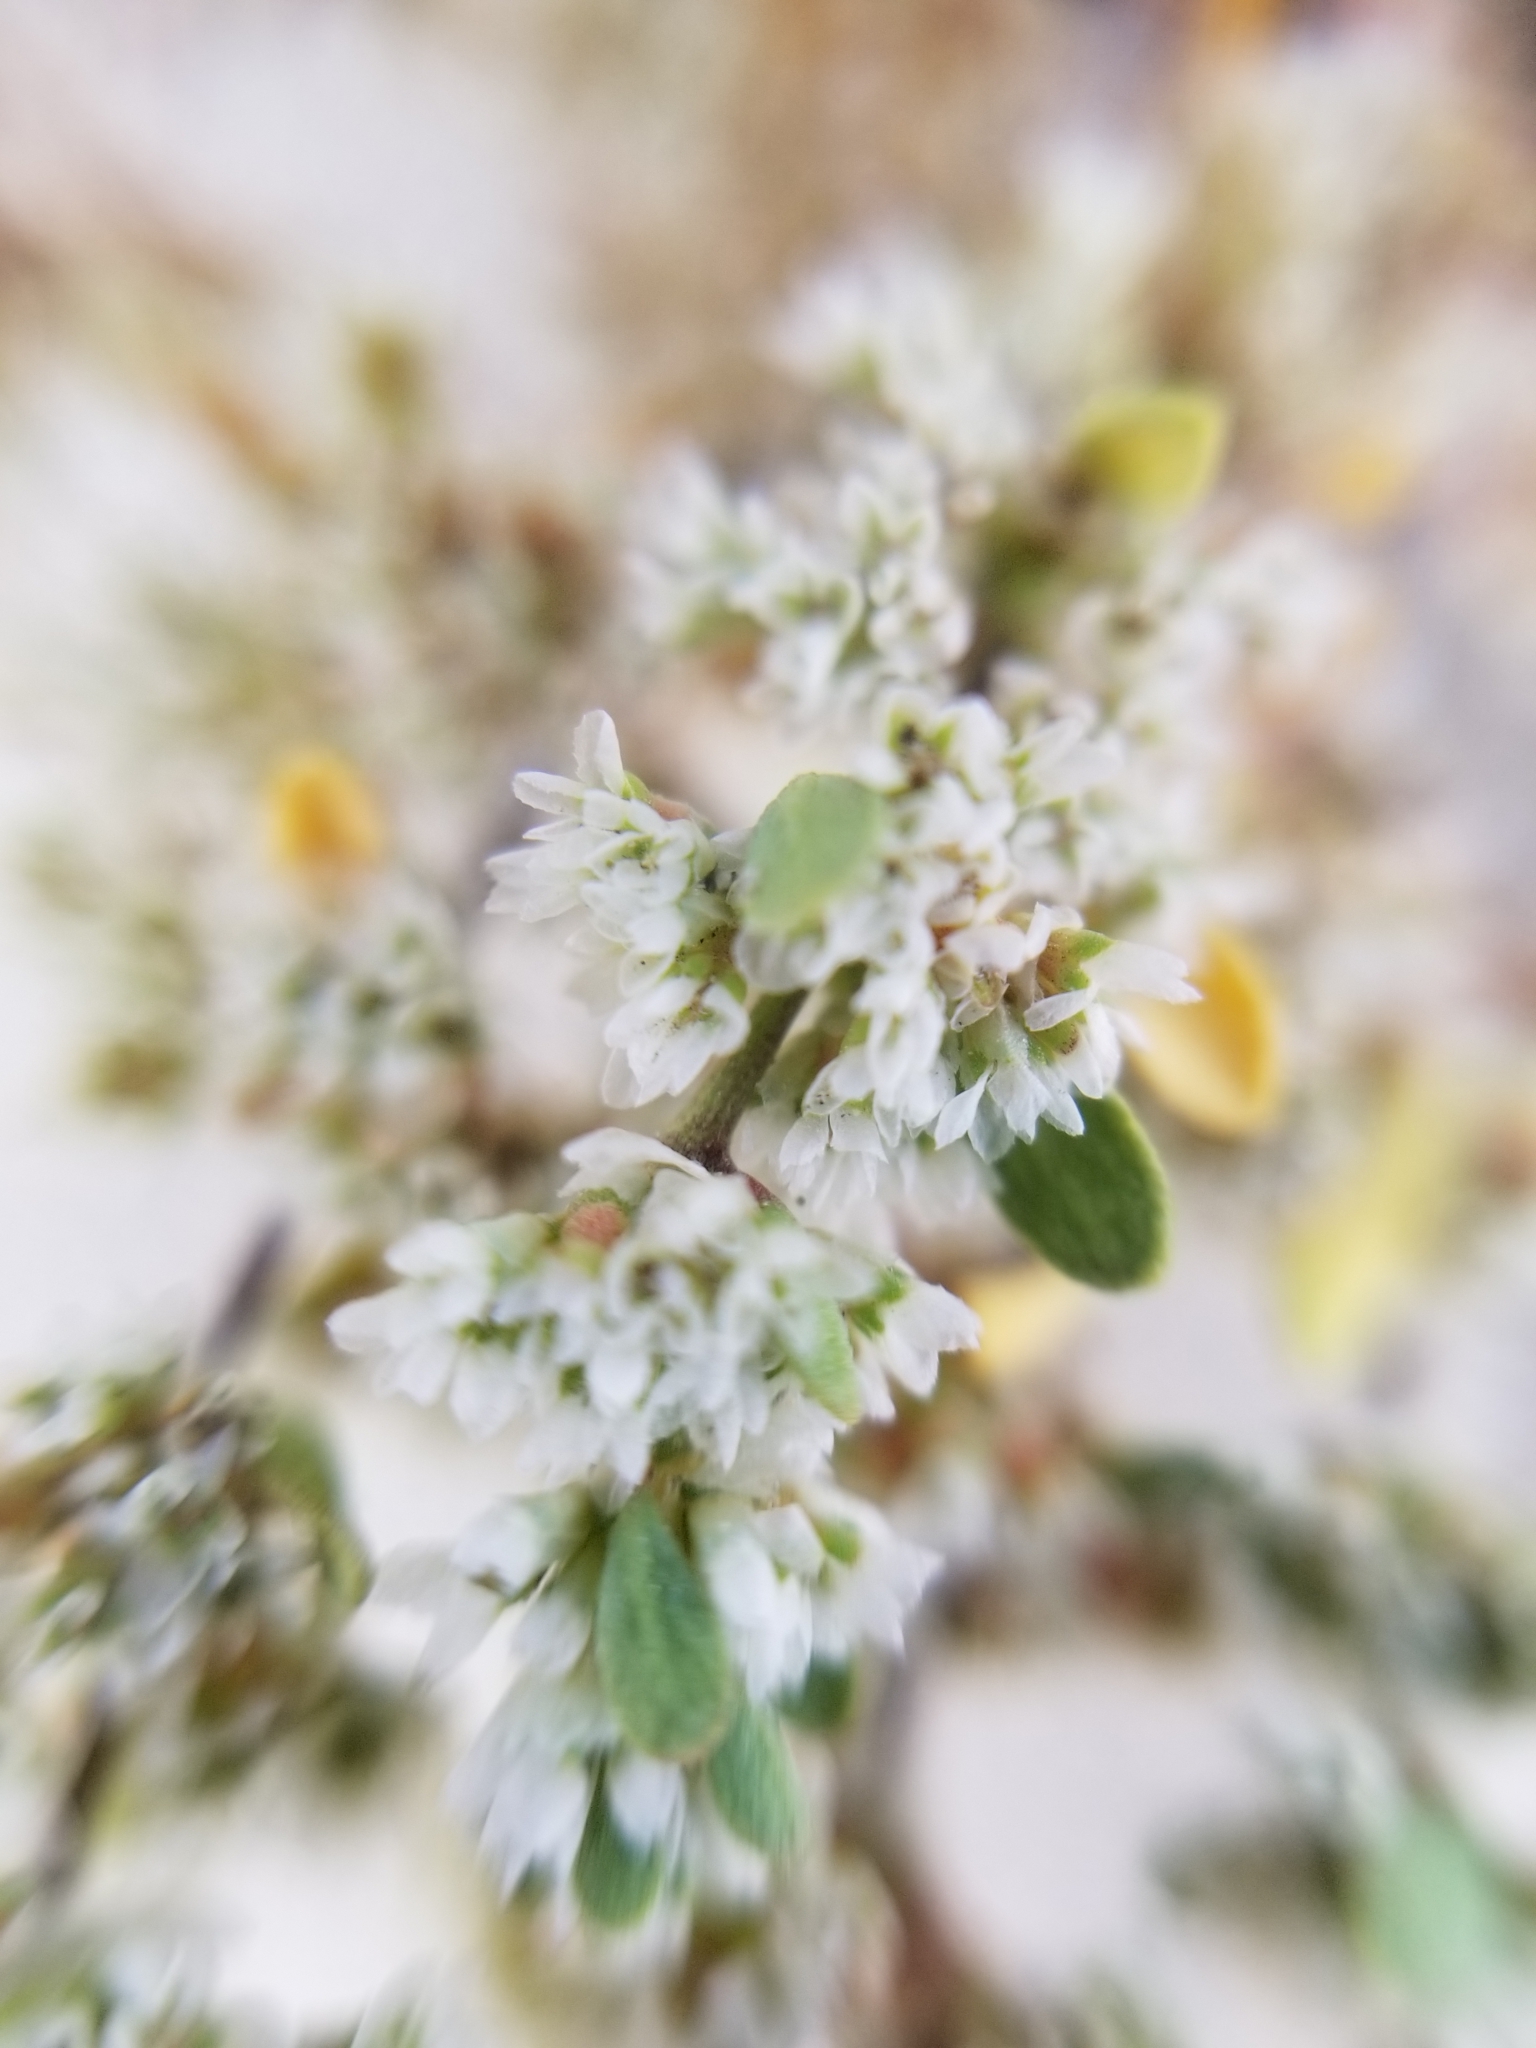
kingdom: Plantae
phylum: Tracheophyta
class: Magnoliopsida
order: Caryophyllales
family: Caryophyllaceae
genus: Achyronychia
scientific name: Achyronychia cooperi
